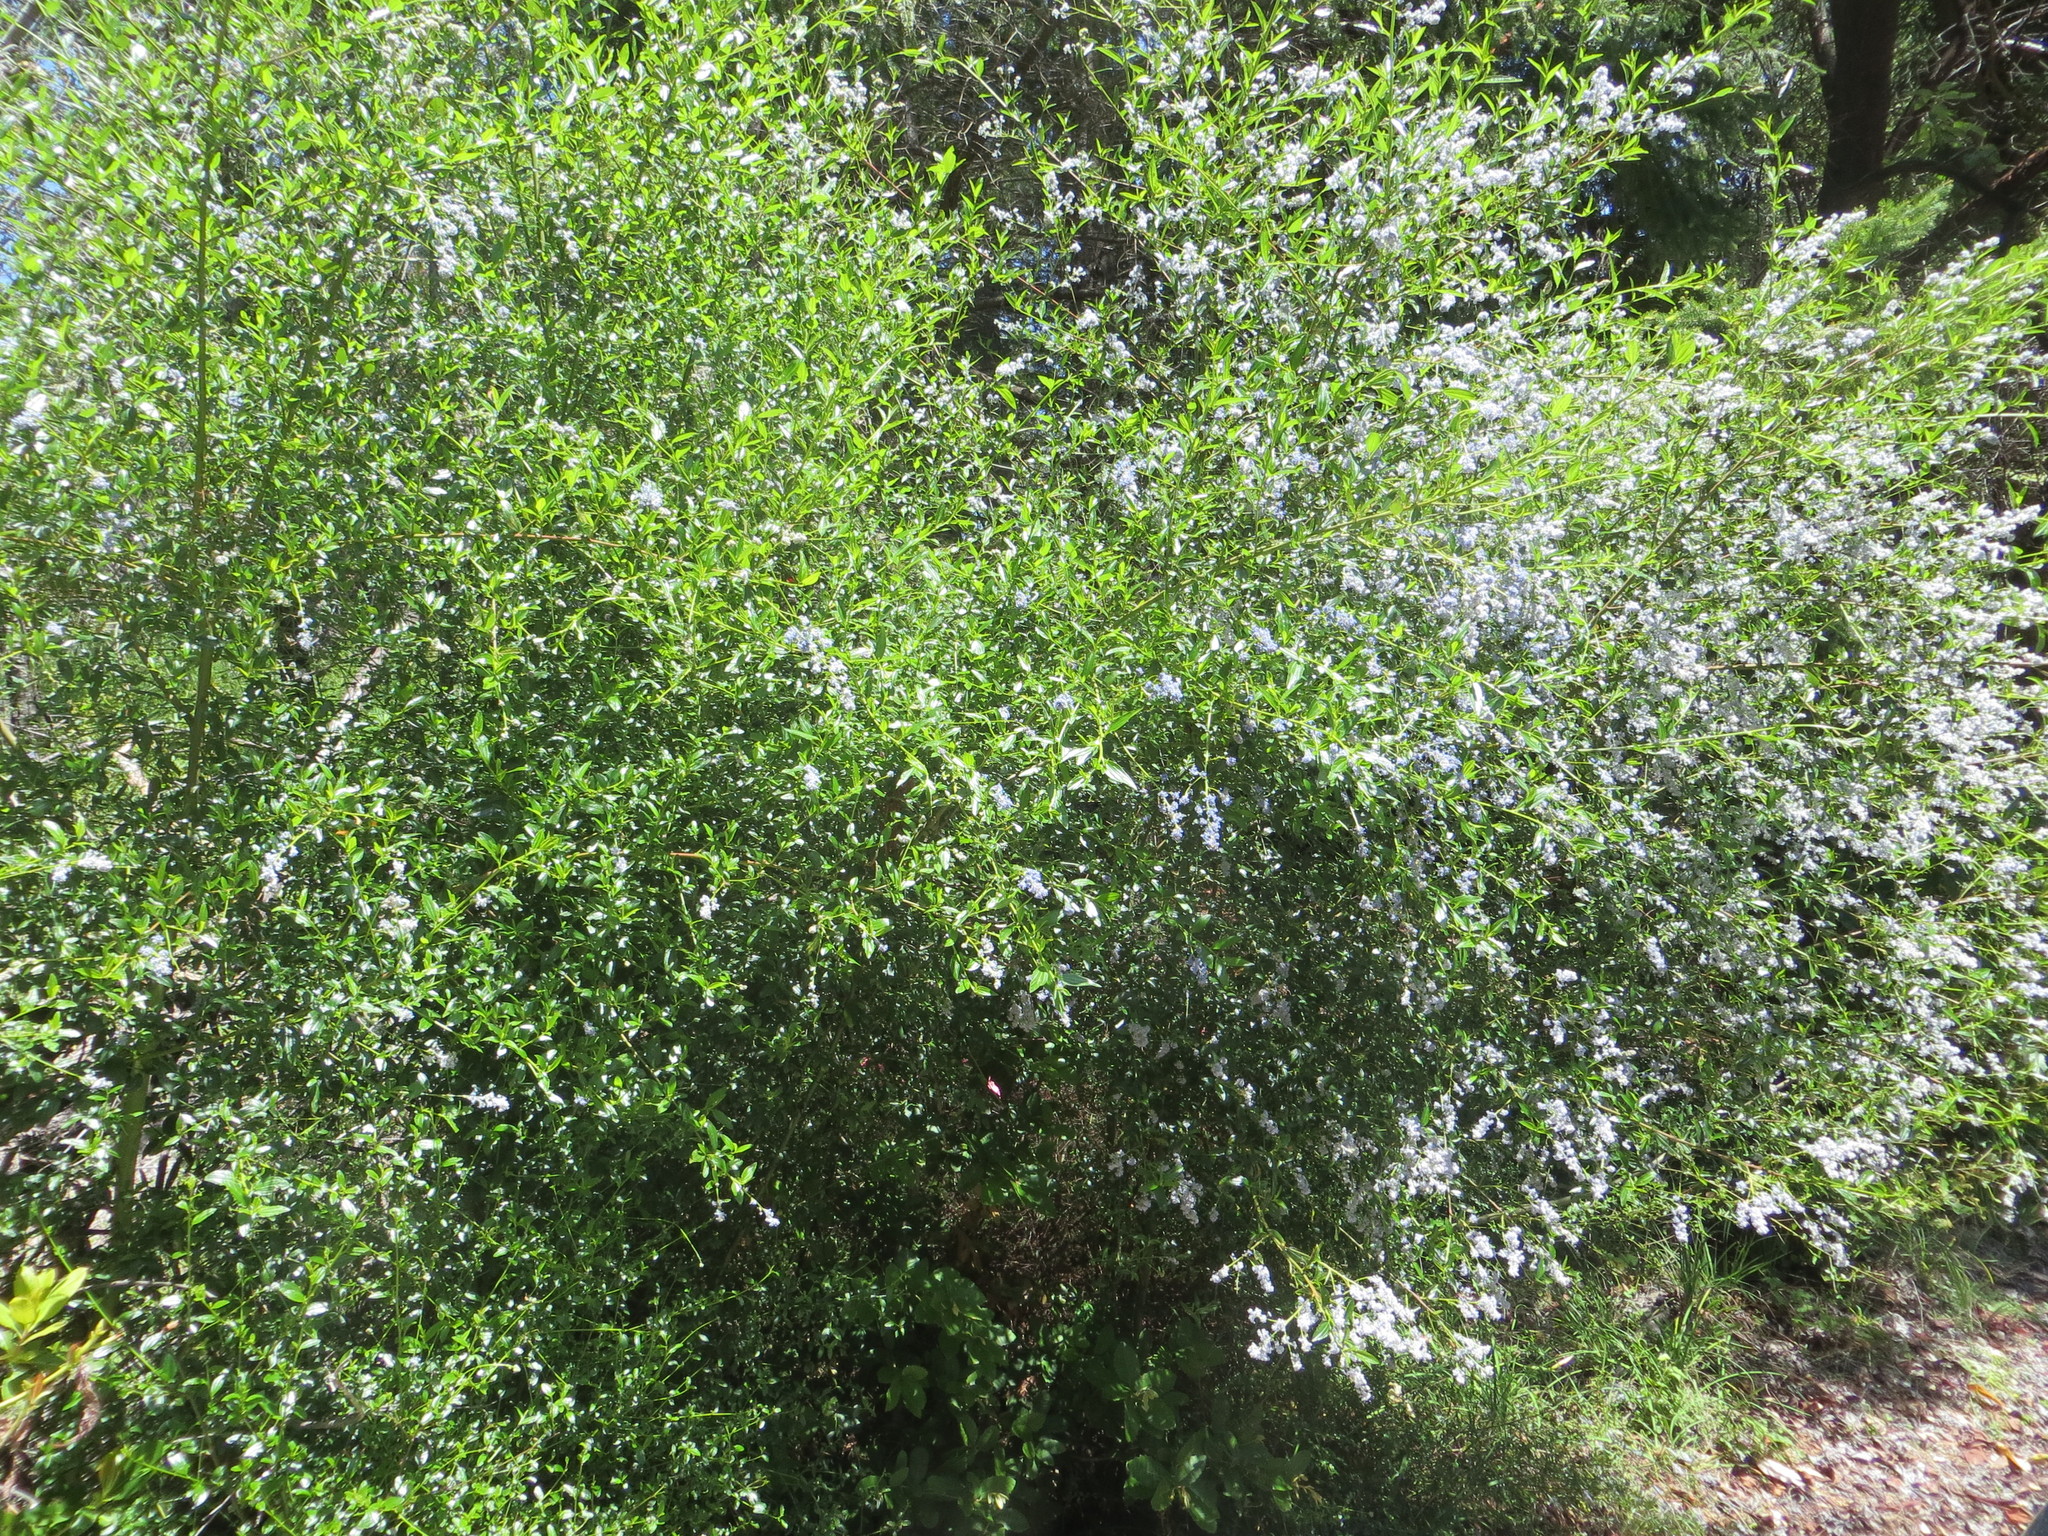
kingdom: Plantae
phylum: Tracheophyta
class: Magnoliopsida
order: Rosales
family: Rhamnaceae
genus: Ceanothus
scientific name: Ceanothus thyrsiflorus
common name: California-lilac
